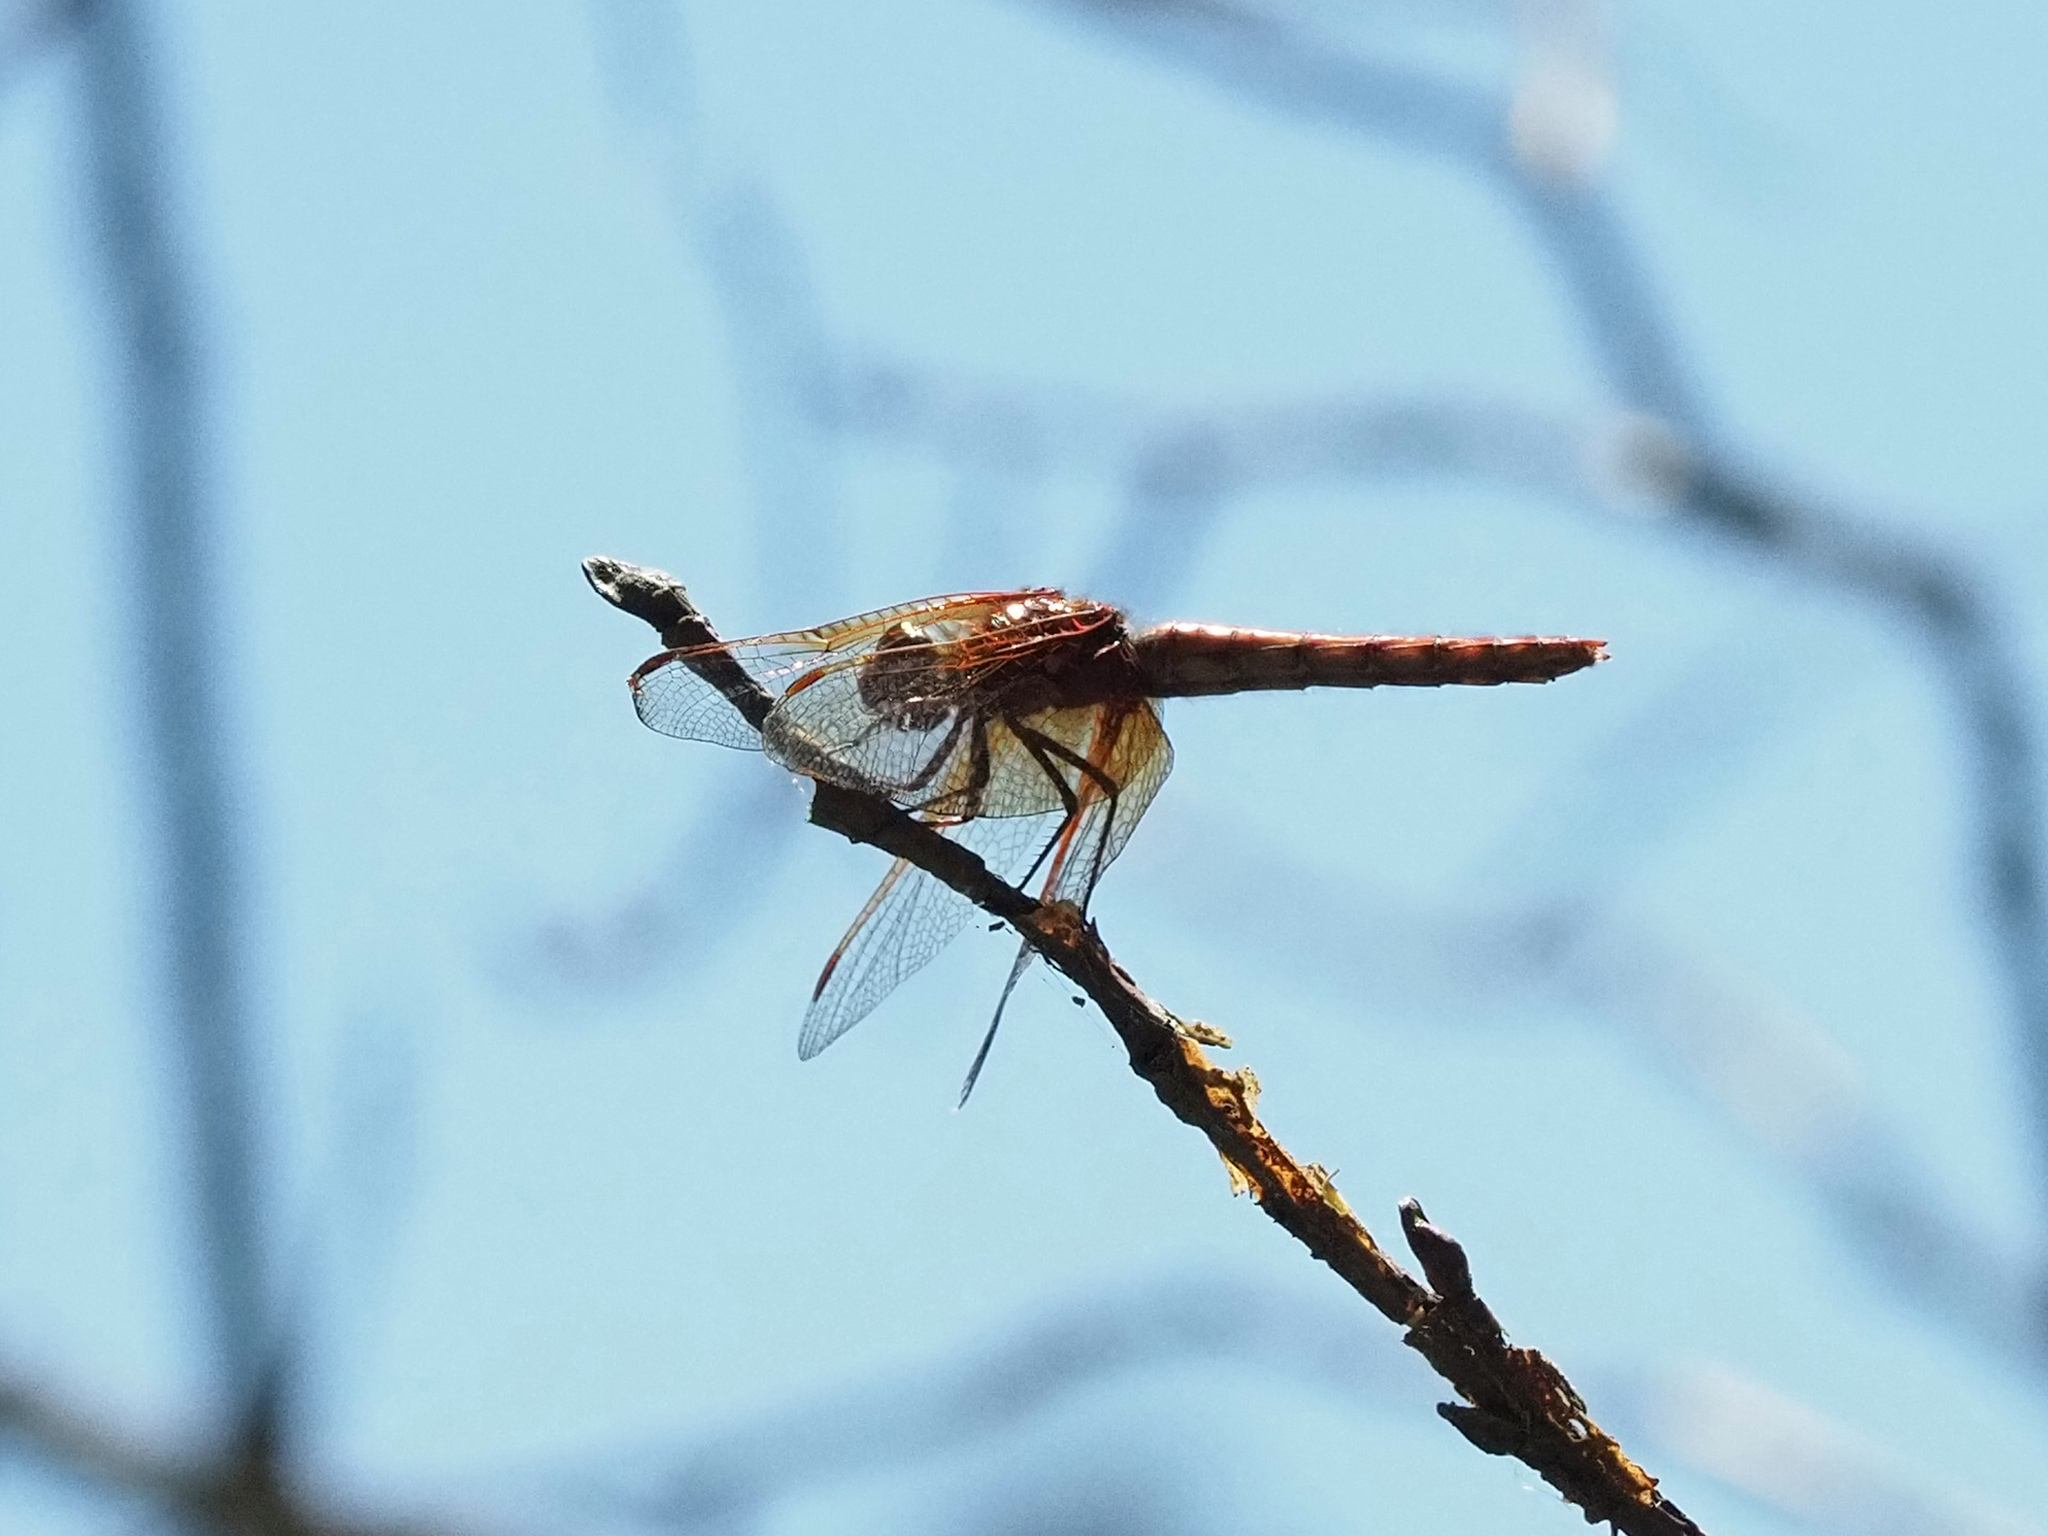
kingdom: Animalia
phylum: Arthropoda
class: Insecta
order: Odonata
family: Libellulidae
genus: Sympetrum
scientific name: Sympetrum illotum
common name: Cardinal meadowhawk
